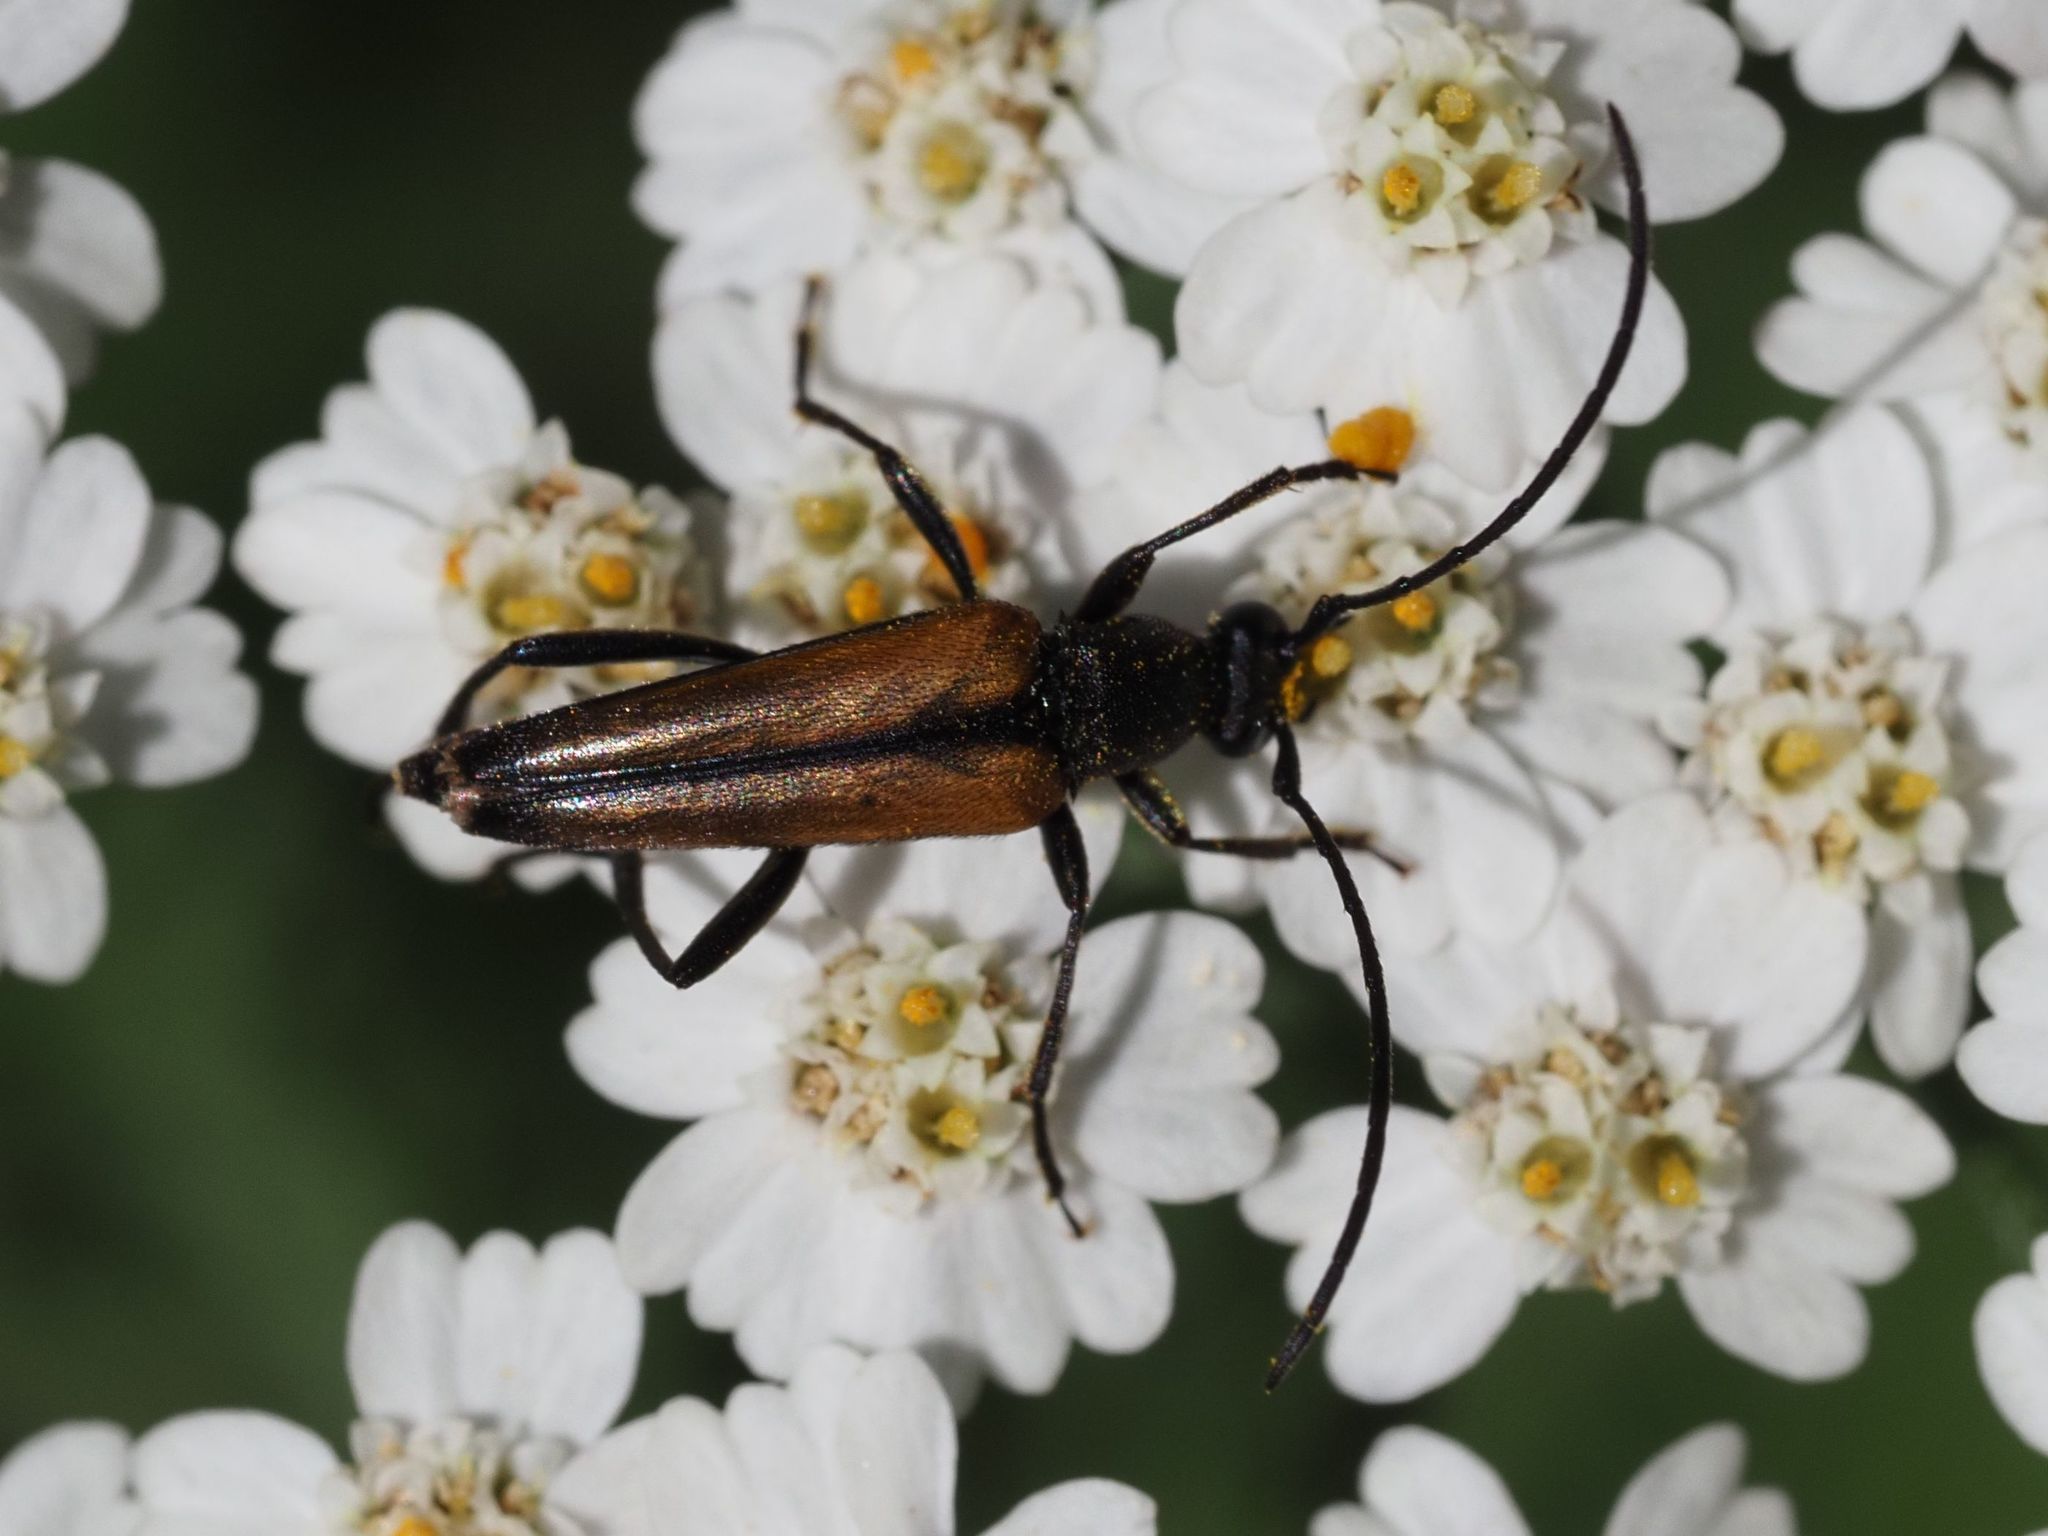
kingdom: Animalia
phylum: Arthropoda
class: Insecta
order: Coleoptera
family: Cerambycidae
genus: Stenurella
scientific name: Stenurella melanura
